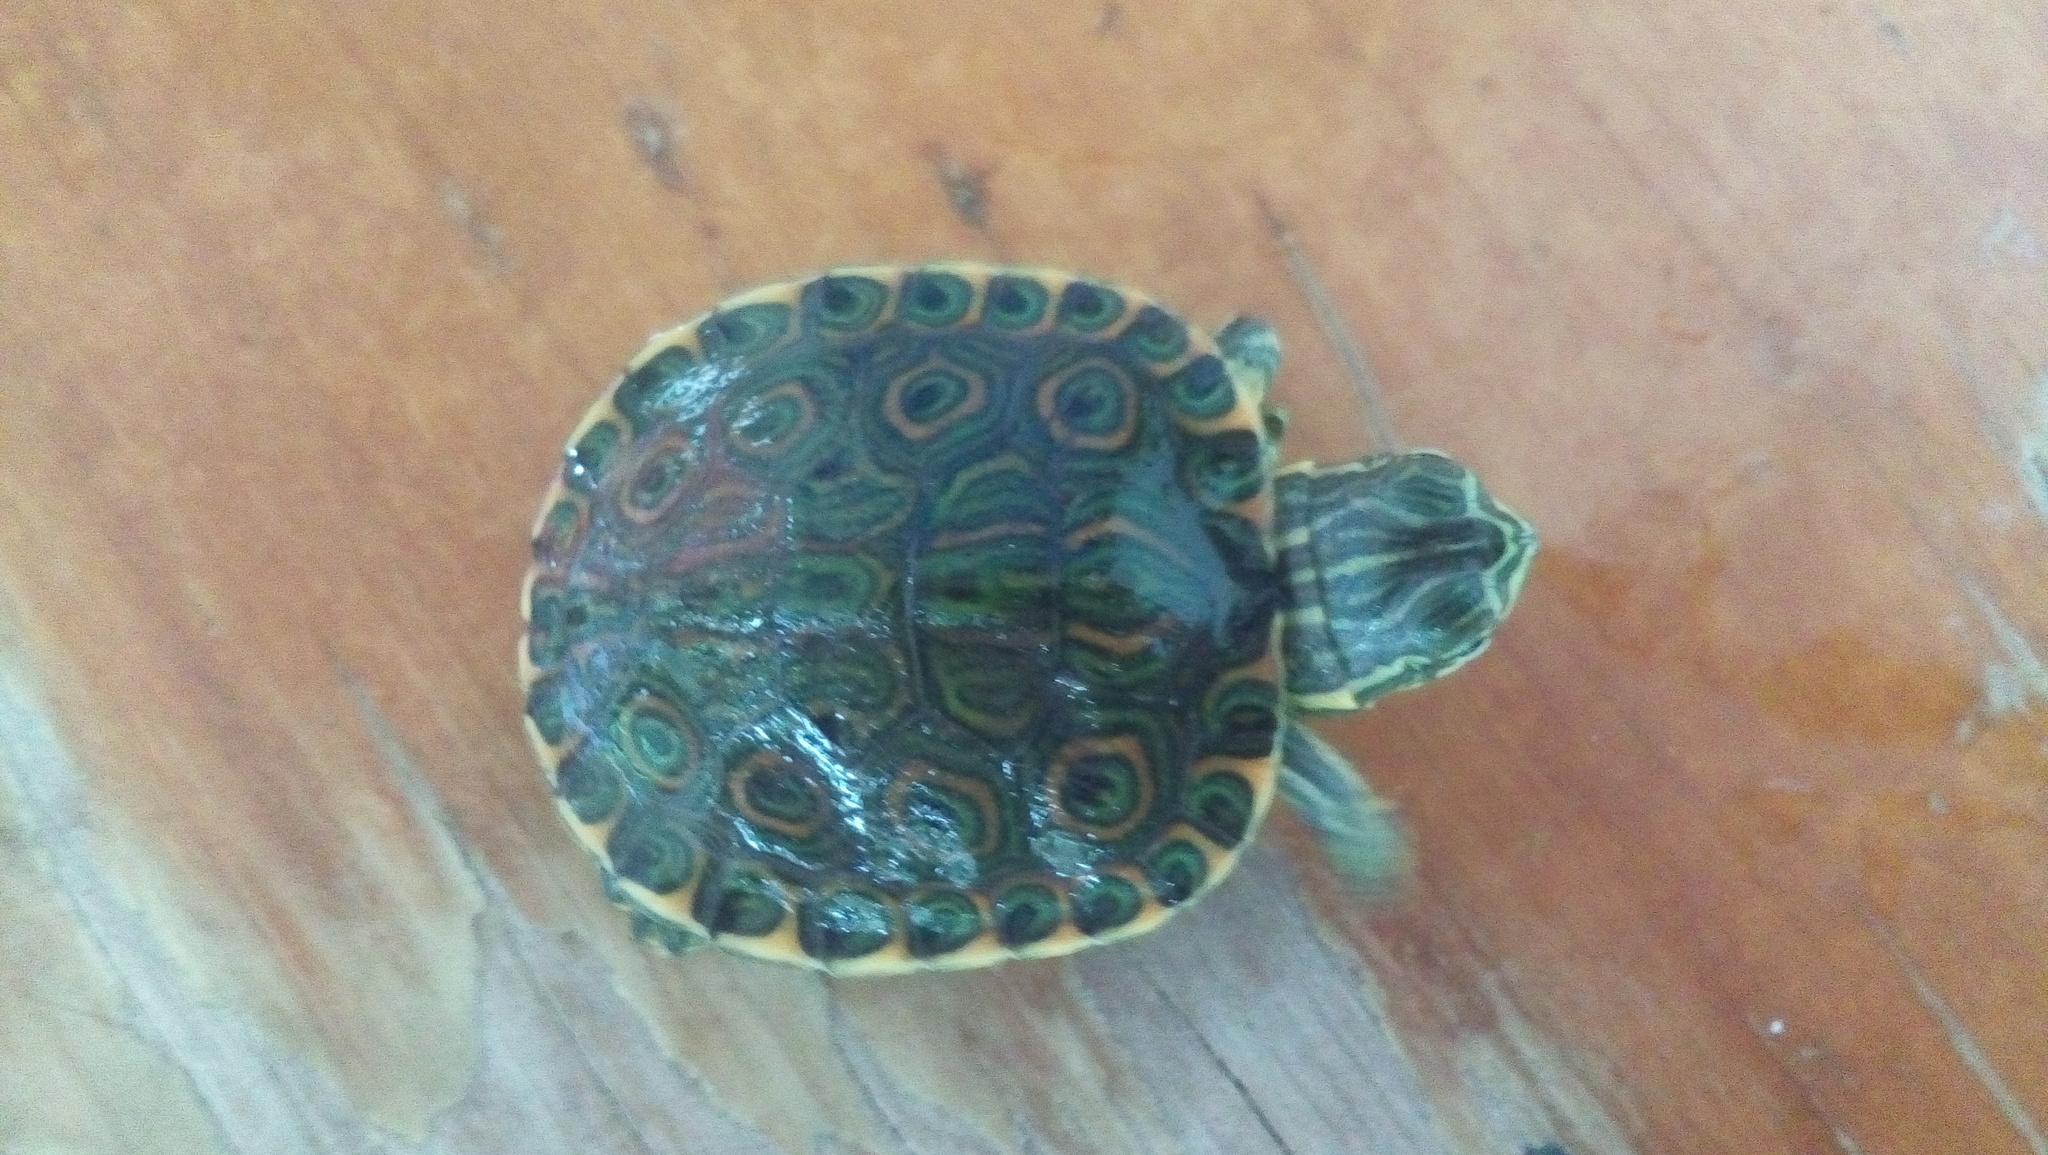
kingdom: Animalia
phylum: Chordata
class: Testudines
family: Emydidae
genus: Trachemys
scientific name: Trachemys venusta
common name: Mesoamerican slider
